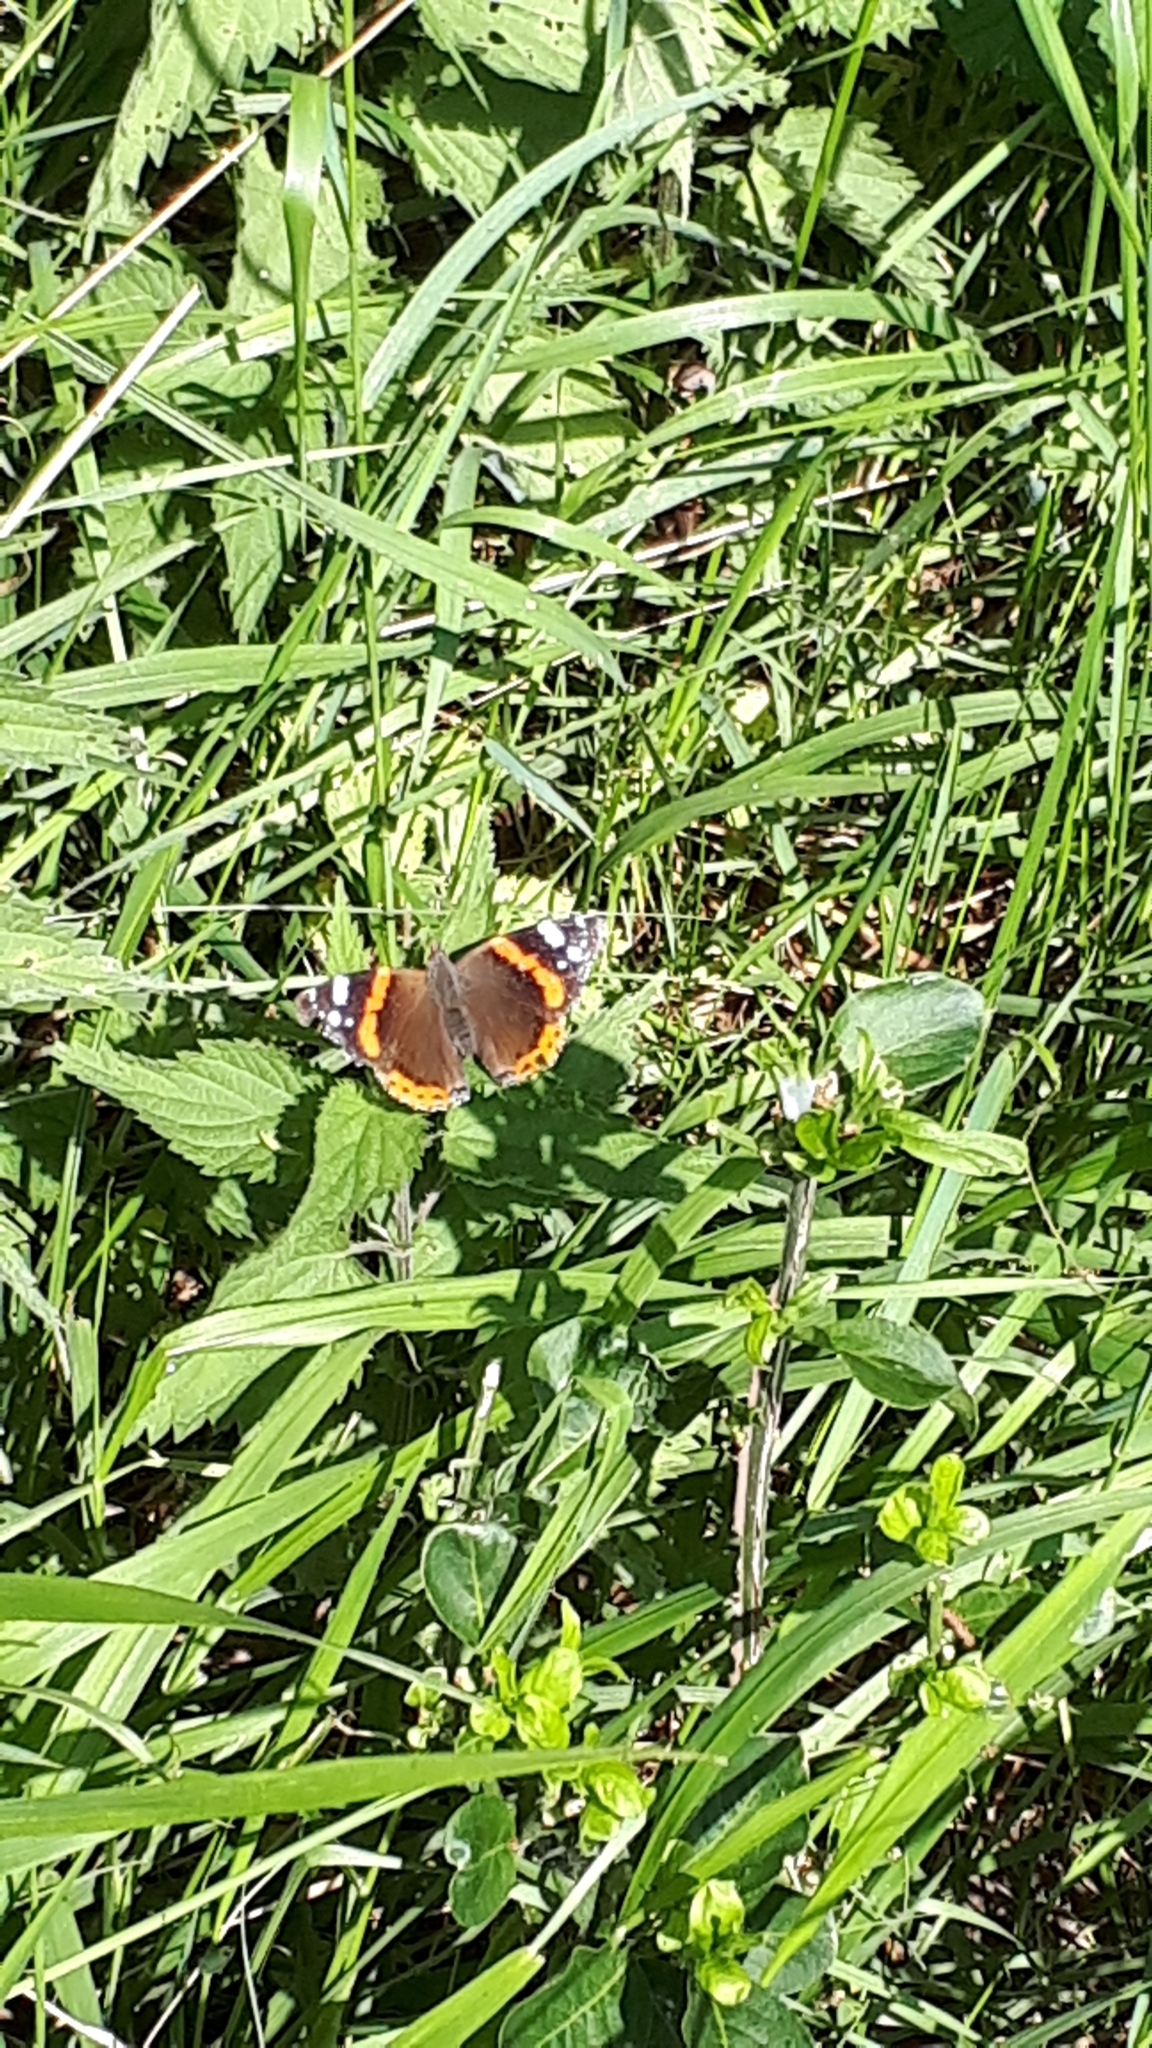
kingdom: Animalia
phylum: Arthropoda
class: Insecta
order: Lepidoptera
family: Nymphalidae
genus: Vanessa
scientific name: Vanessa atalanta
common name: Red admiral
